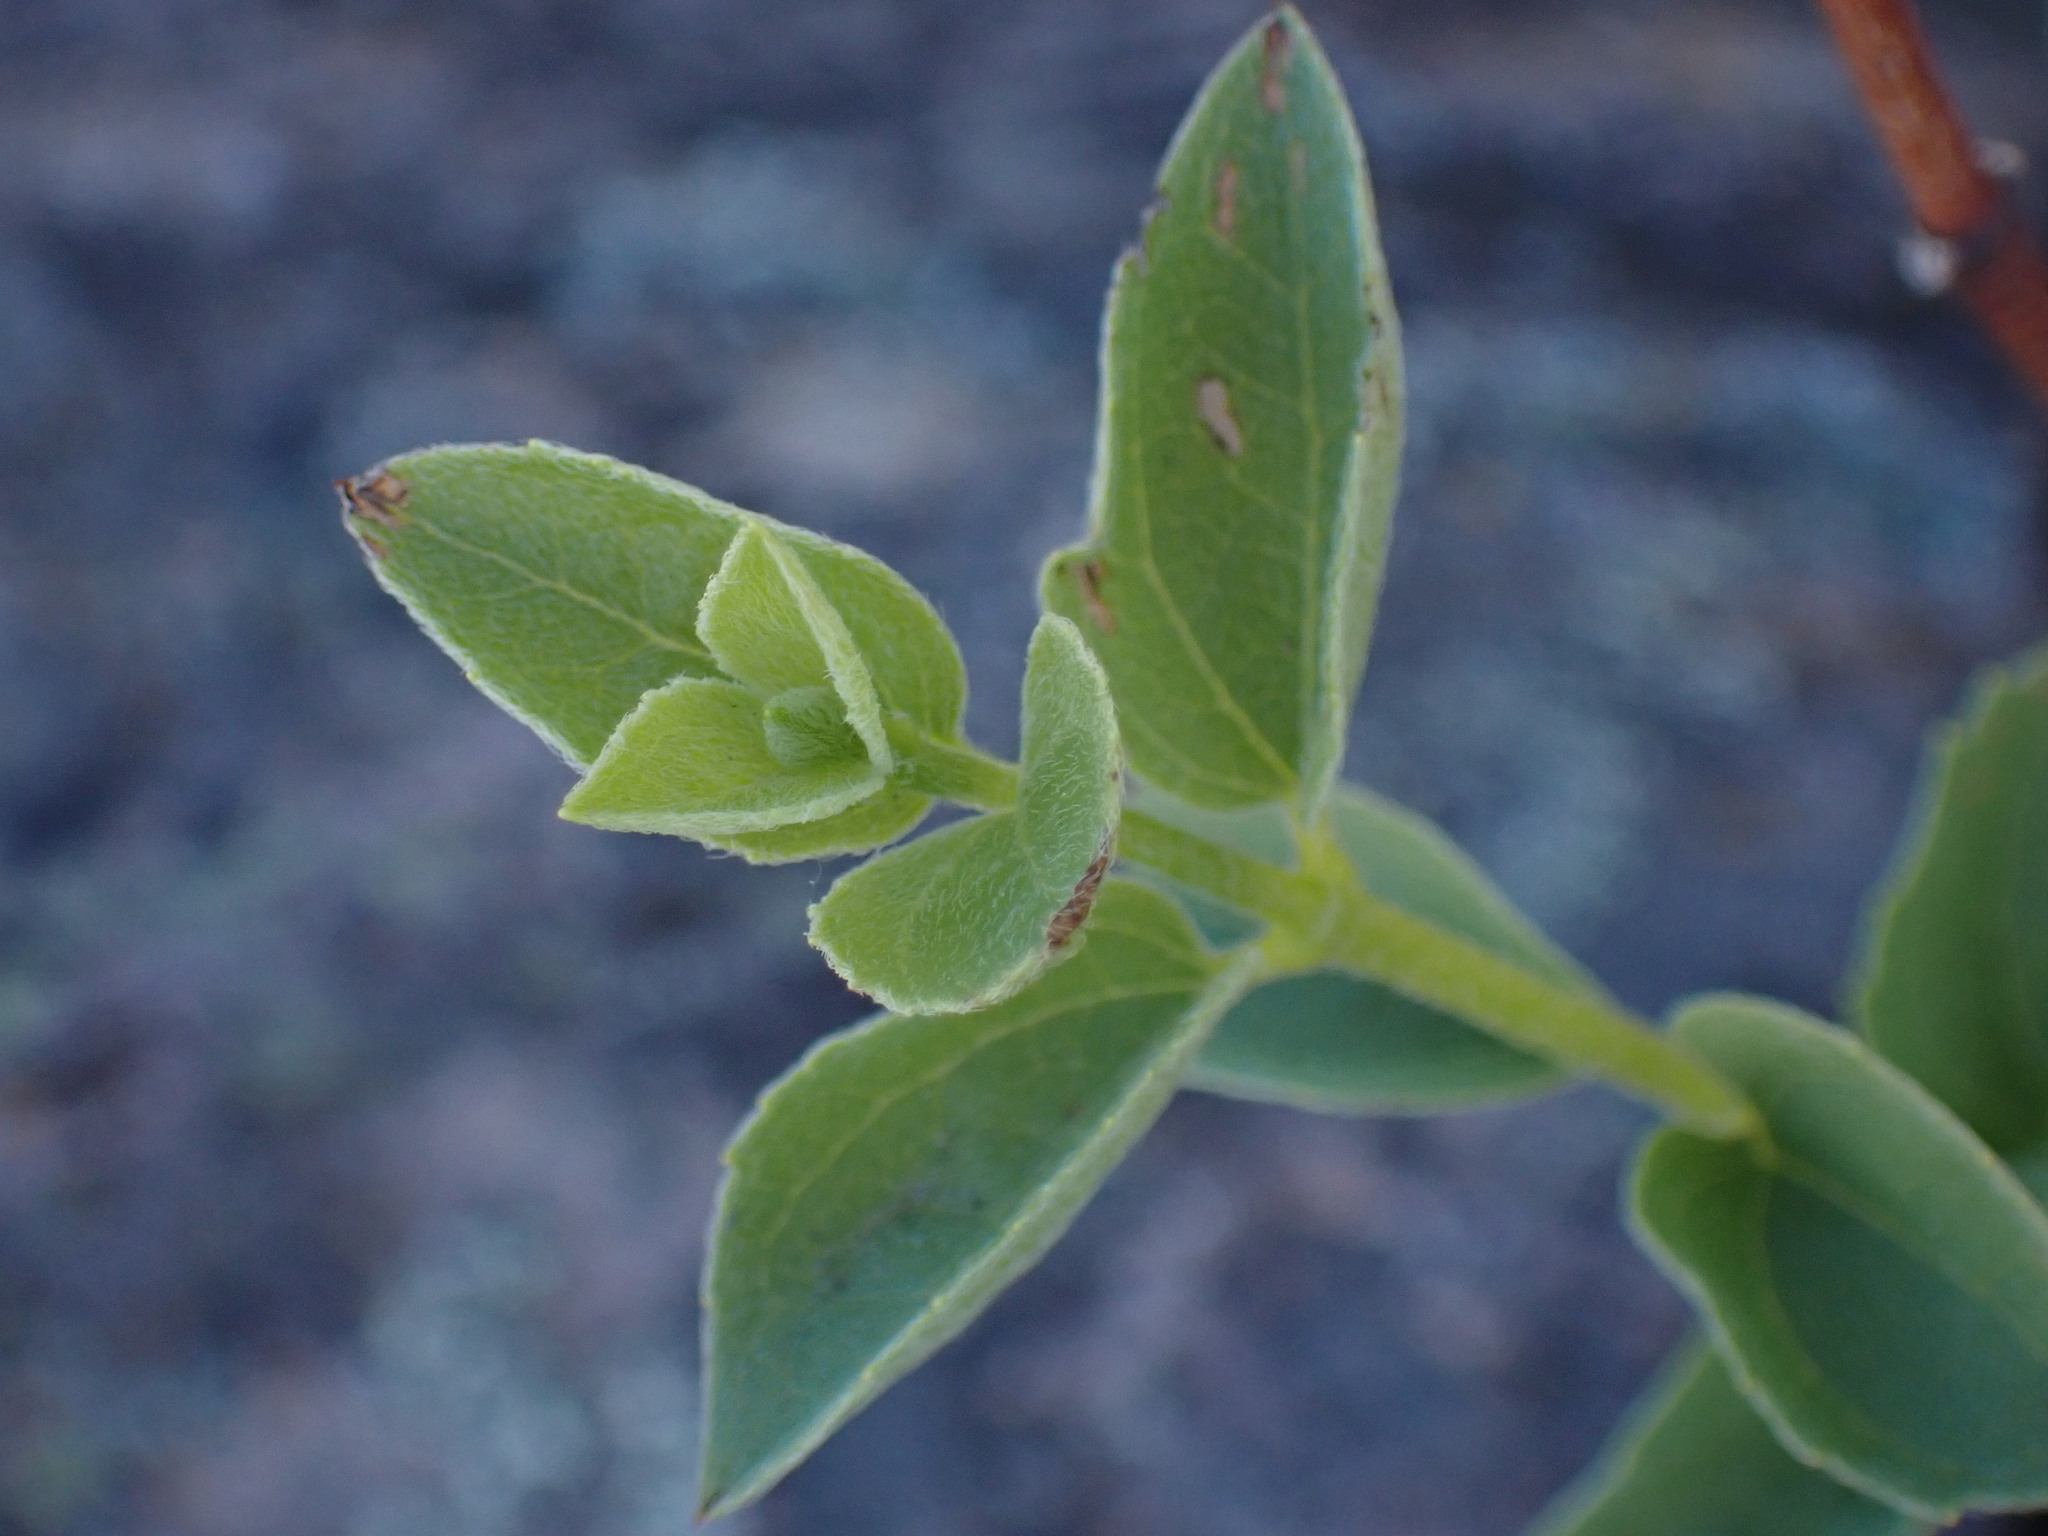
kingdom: Plantae
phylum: Tracheophyta
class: Magnoliopsida
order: Cornales
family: Hydrangeaceae
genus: Philadelphus
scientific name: Philadelphus lewisii
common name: Lewis's mock orange
